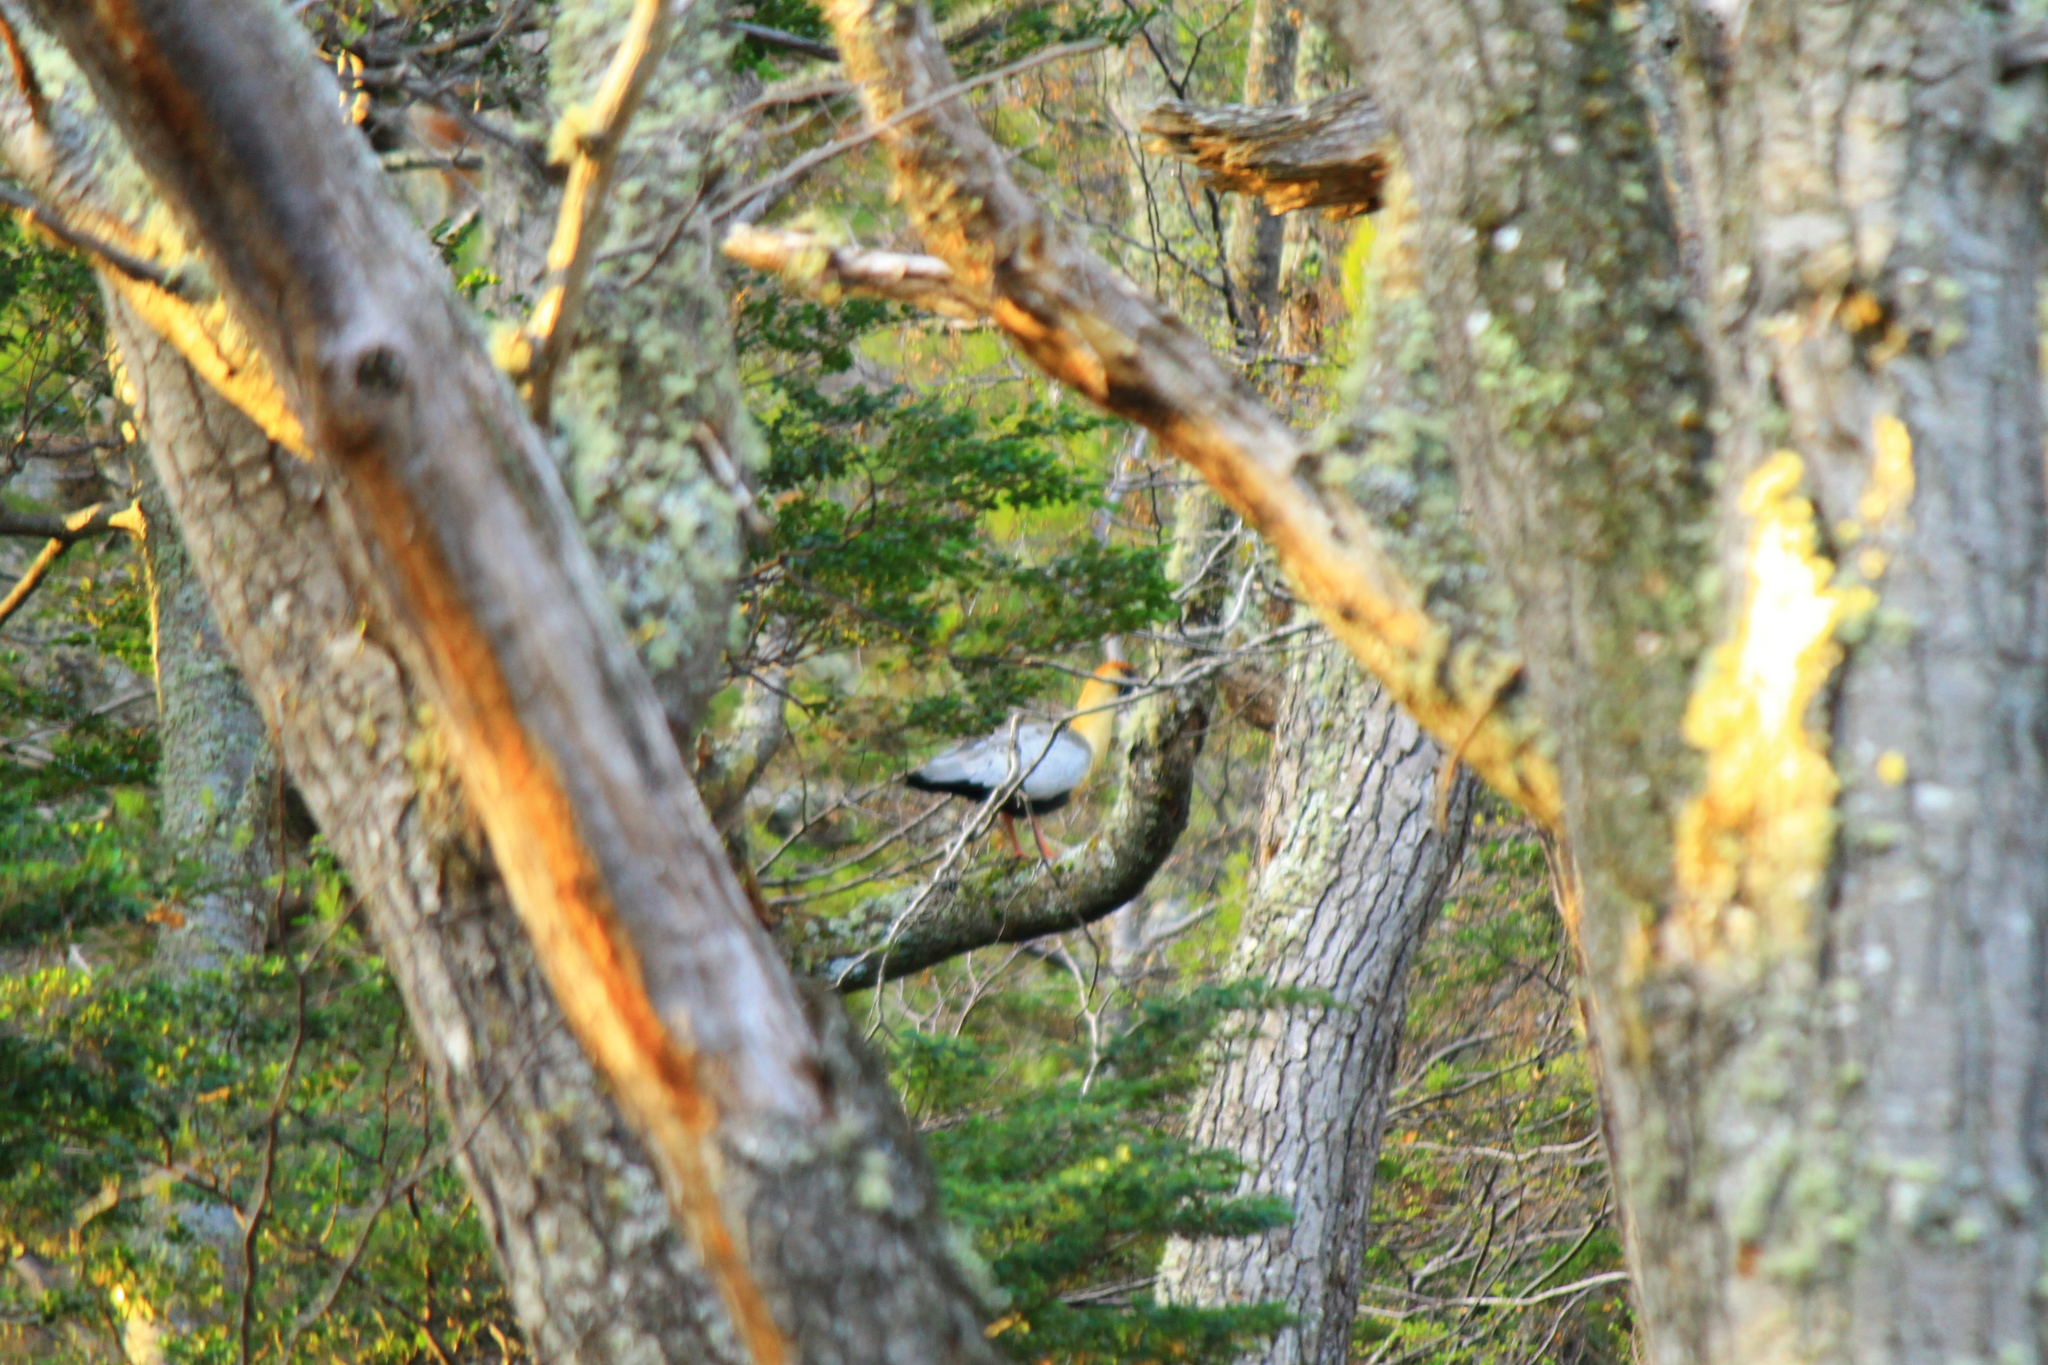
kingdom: Animalia
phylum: Chordata
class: Aves
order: Pelecaniformes
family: Threskiornithidae
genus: Theristicus
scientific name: Theristicus melanopis
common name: Black-faced ibis
